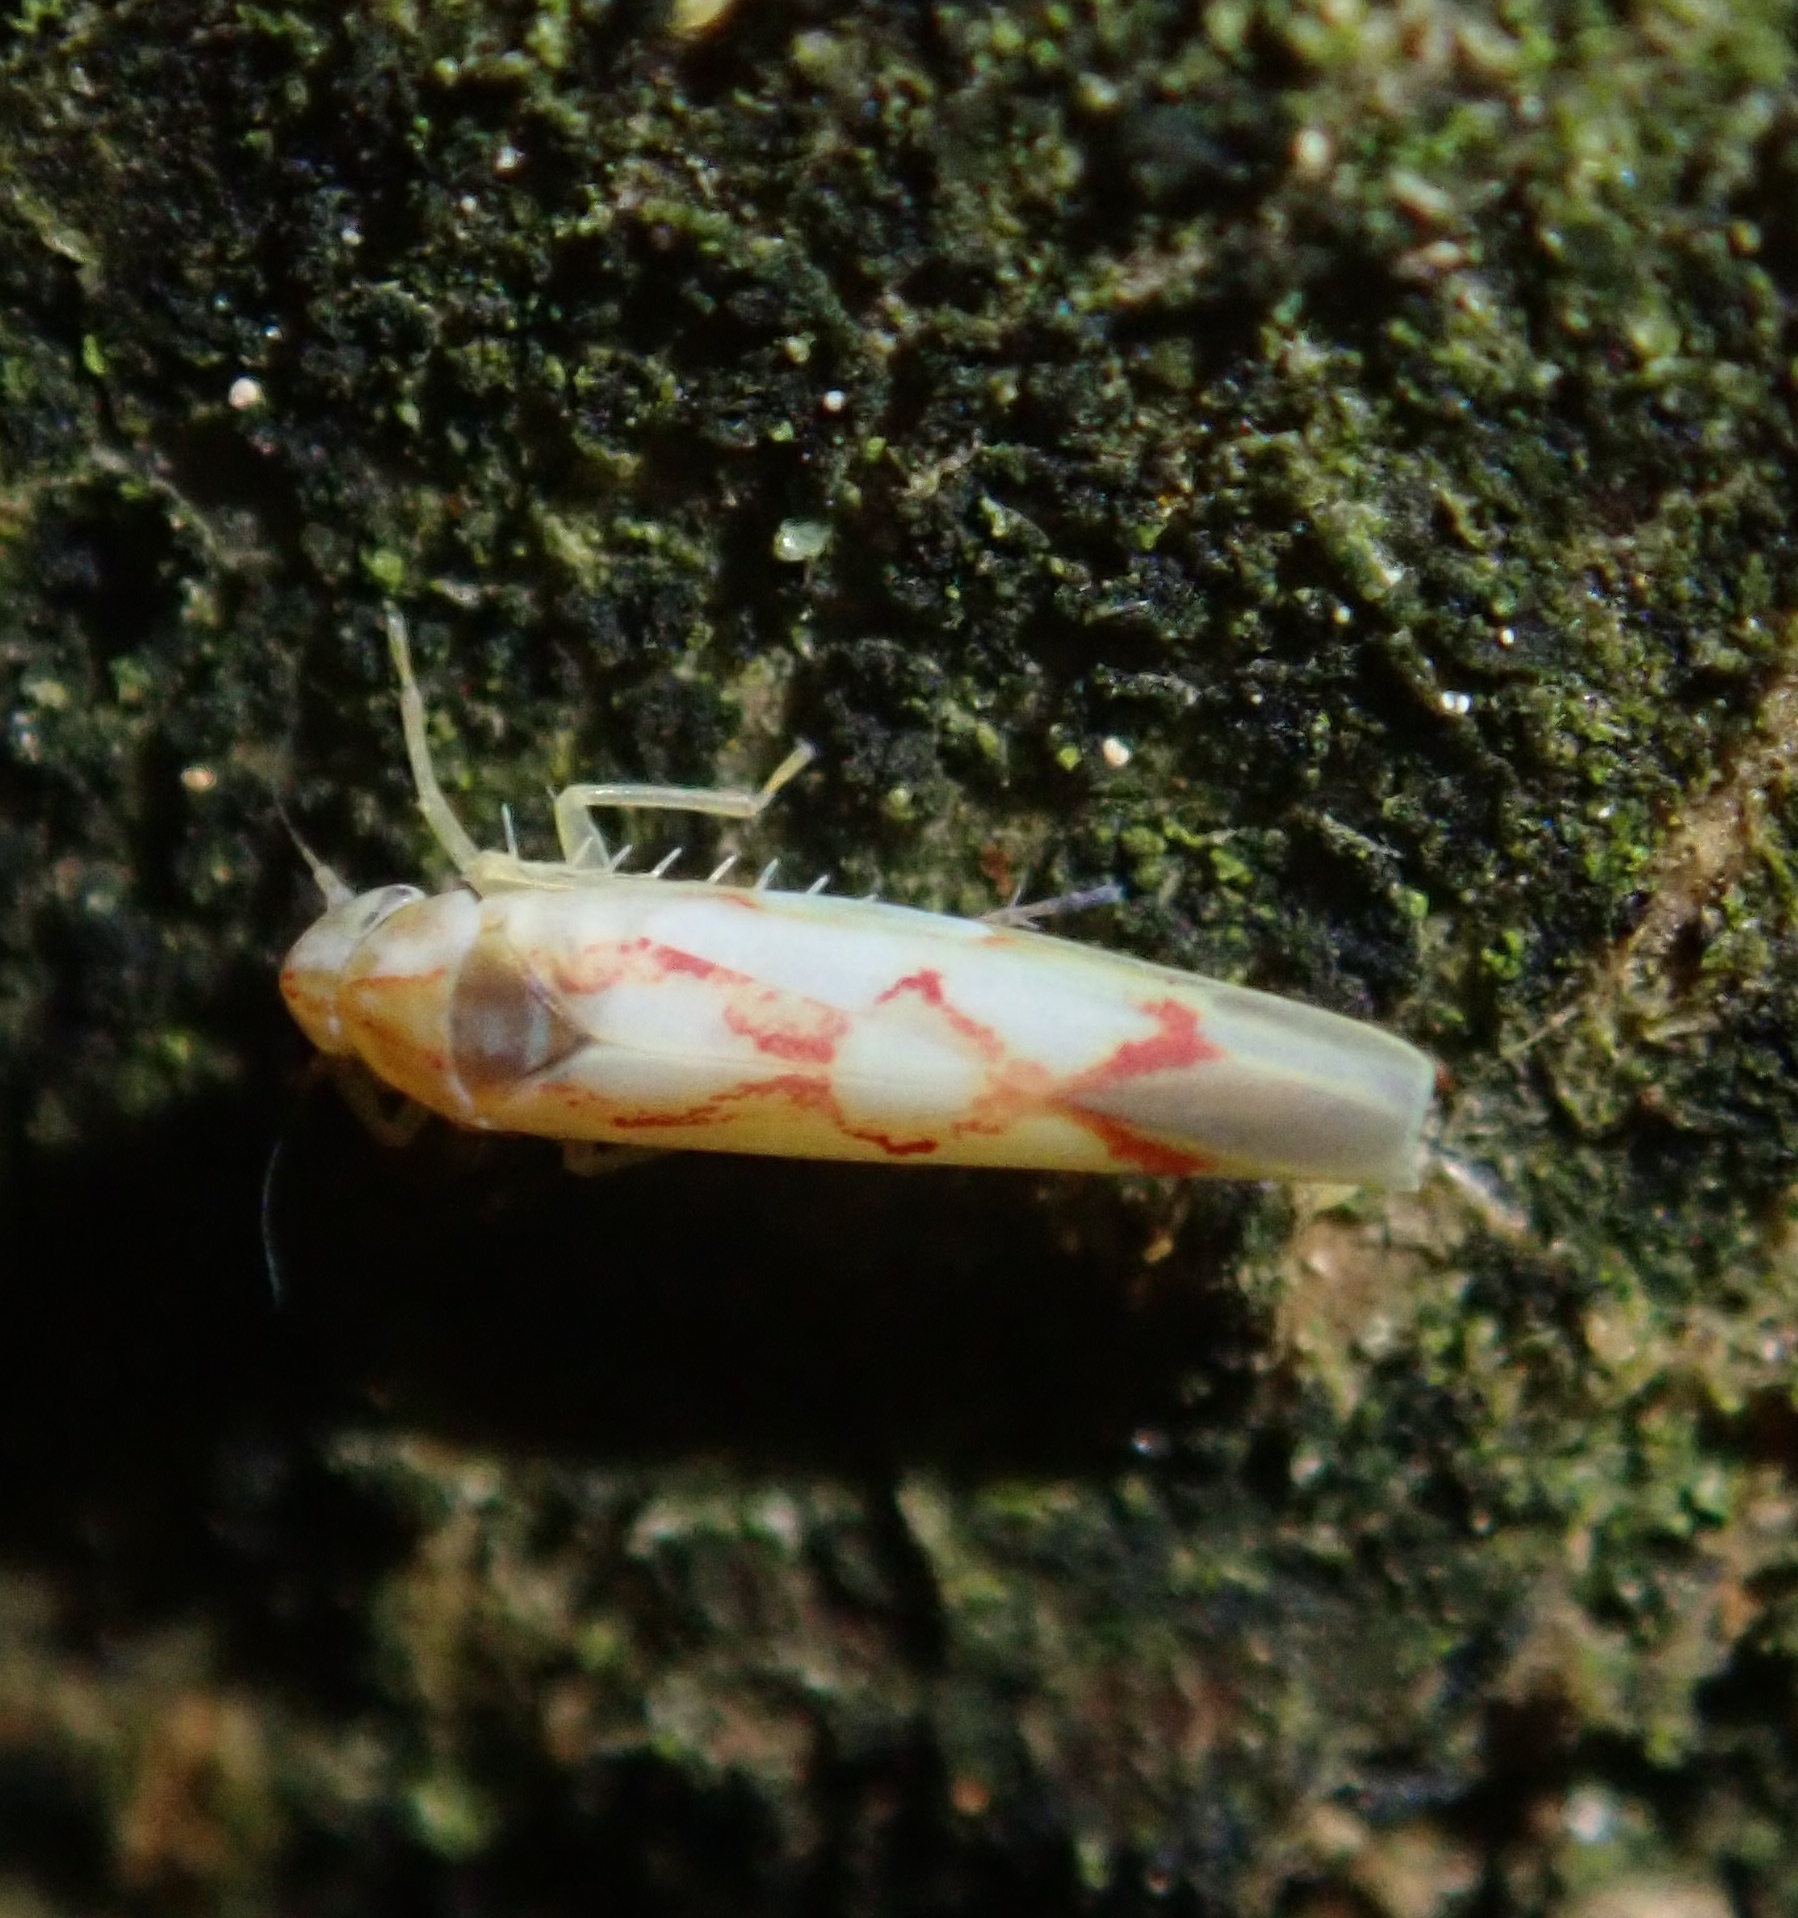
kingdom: Animalia
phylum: Arthropoda
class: Insecta
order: Hemiptera
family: Cicadellidae
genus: Zygina
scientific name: Zygina flammigera
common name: Leafhopper
